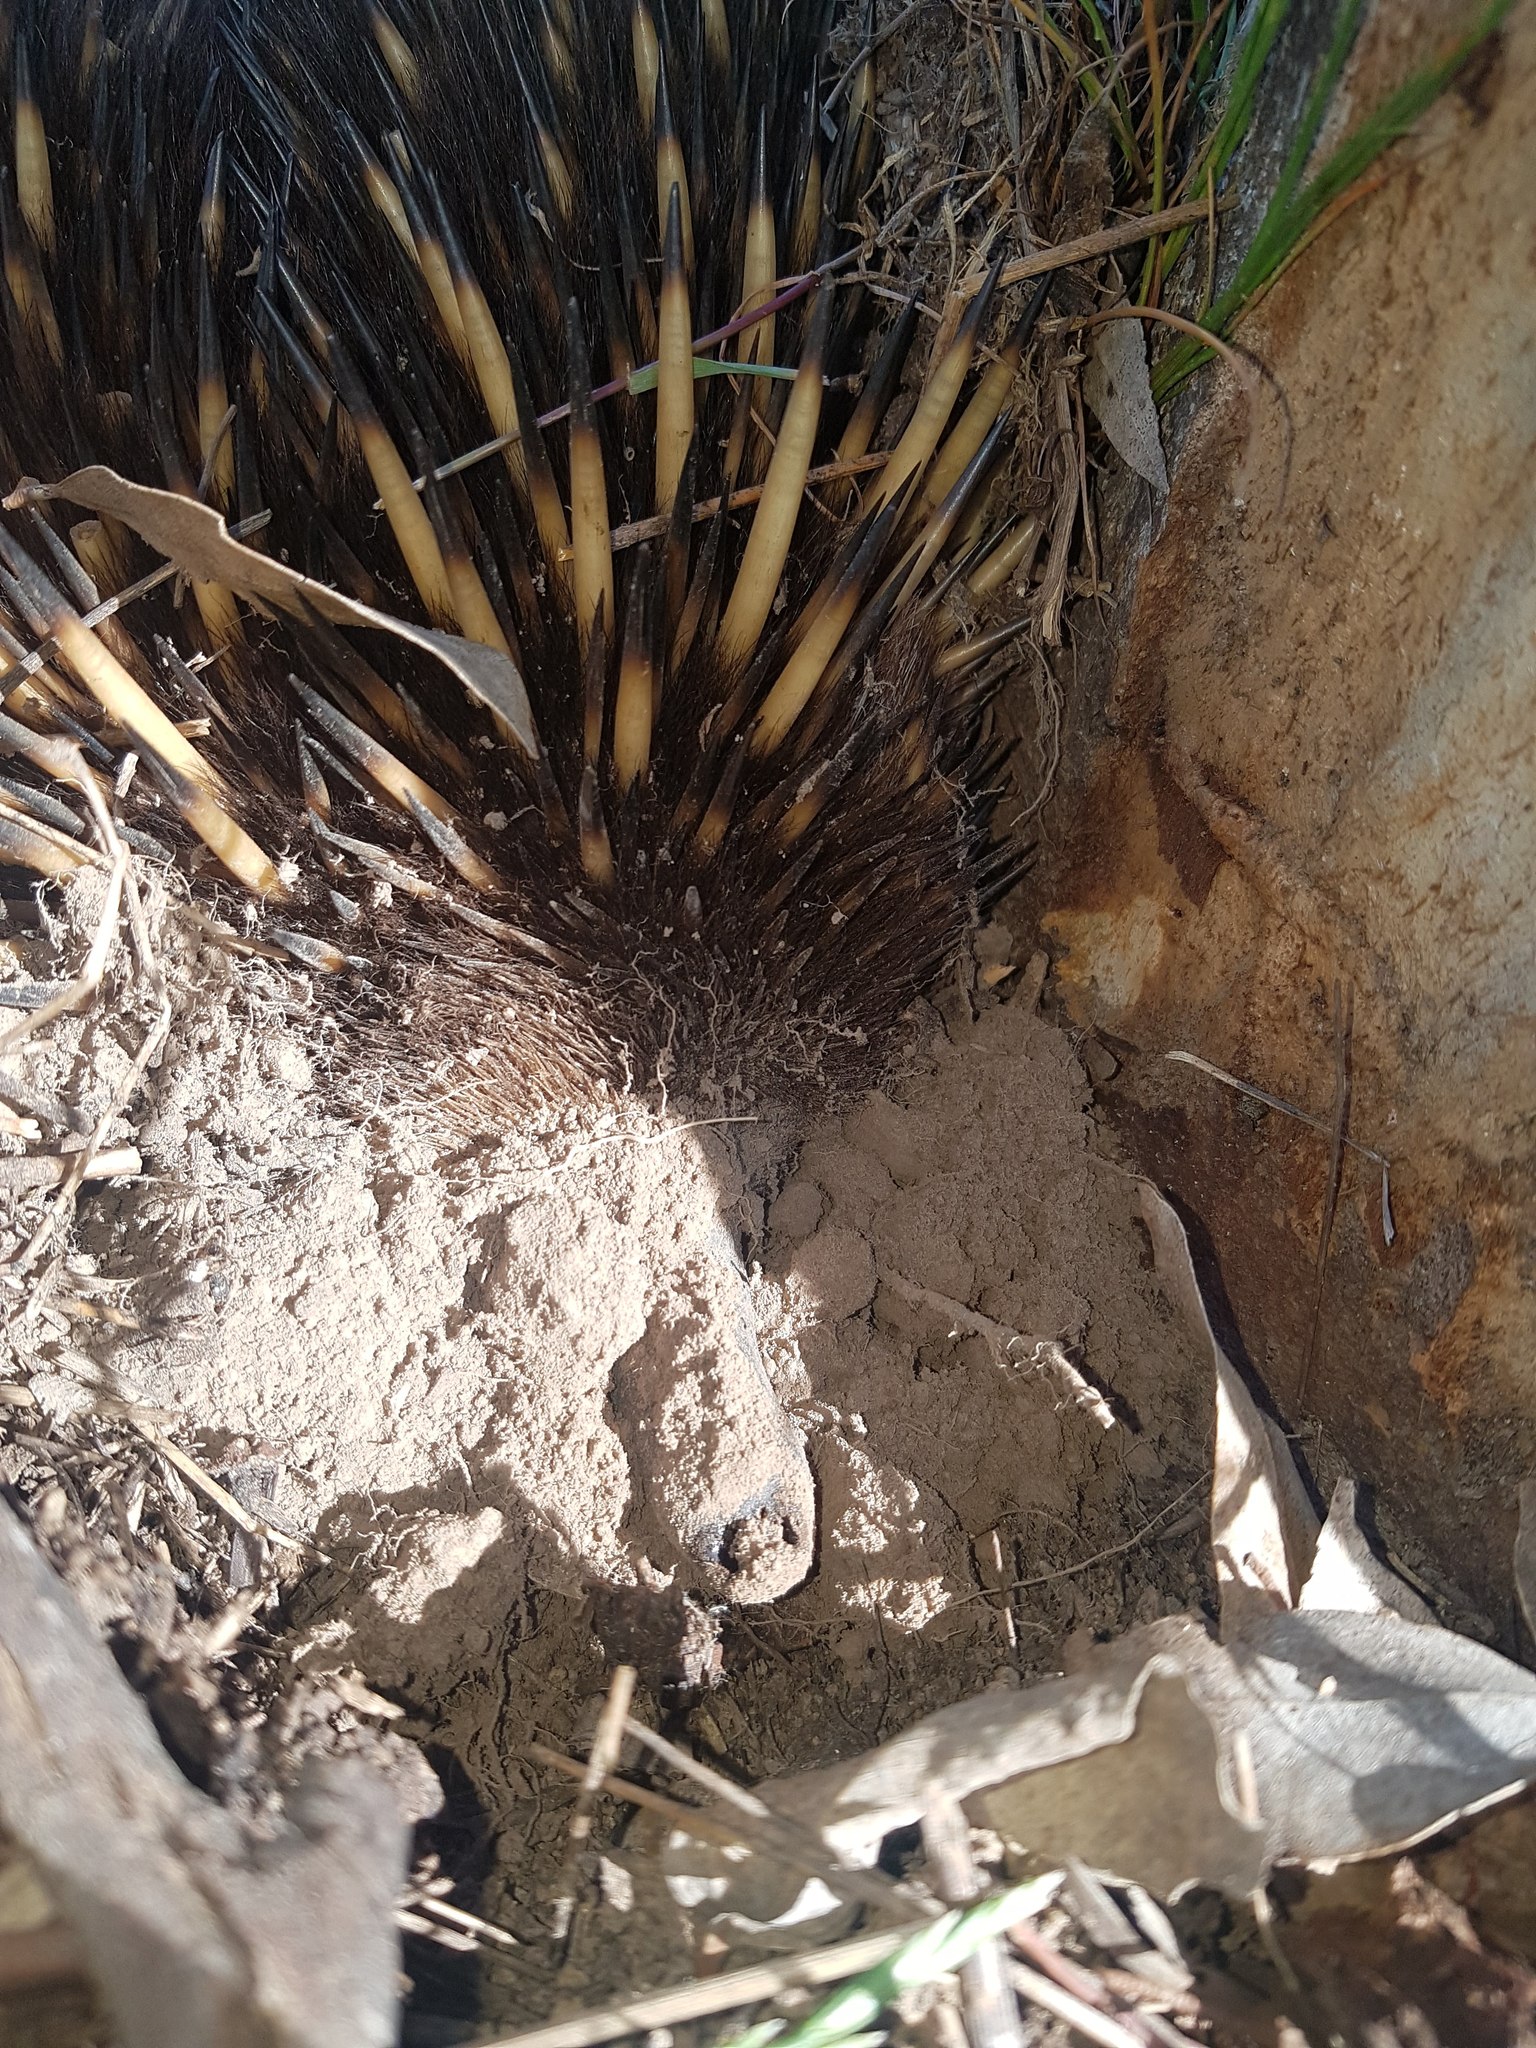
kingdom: Animalia
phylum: Chordata
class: Mammalia
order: Monotremata
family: Tachyglossidae
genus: Tachyglossus
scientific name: Tachyglossus aculeatus
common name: Short-beaked echidna
